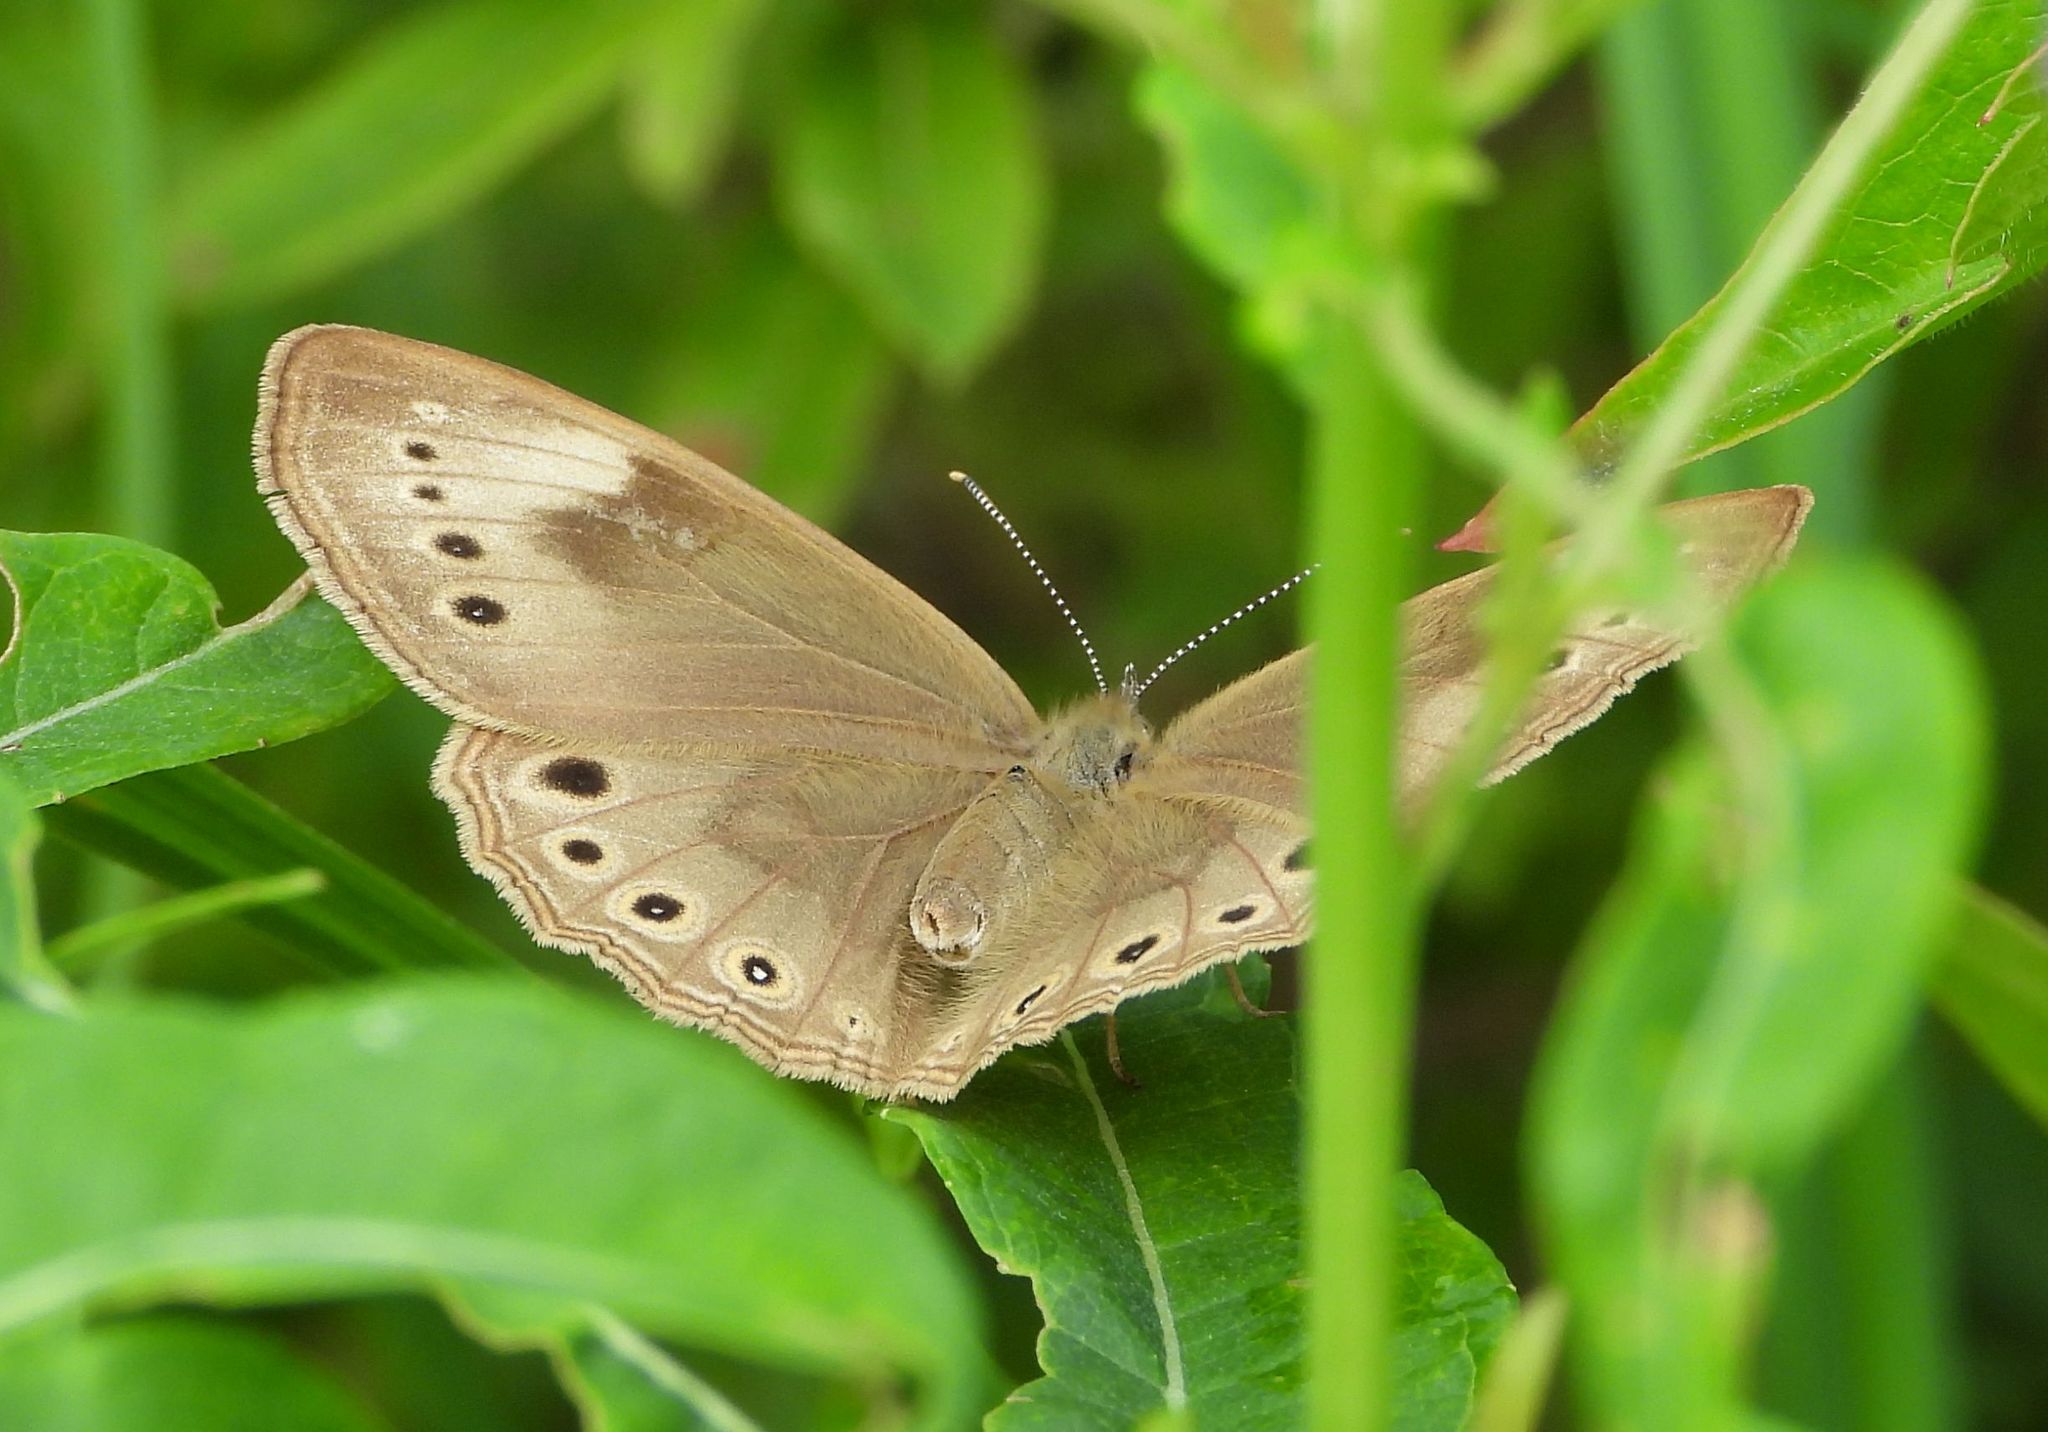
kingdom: Animalia
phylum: Arthropoda
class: Insecta
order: Lepidoptera
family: Nymphalidae
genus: Lethe
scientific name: Lethe eurydice
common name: Eyed brown
